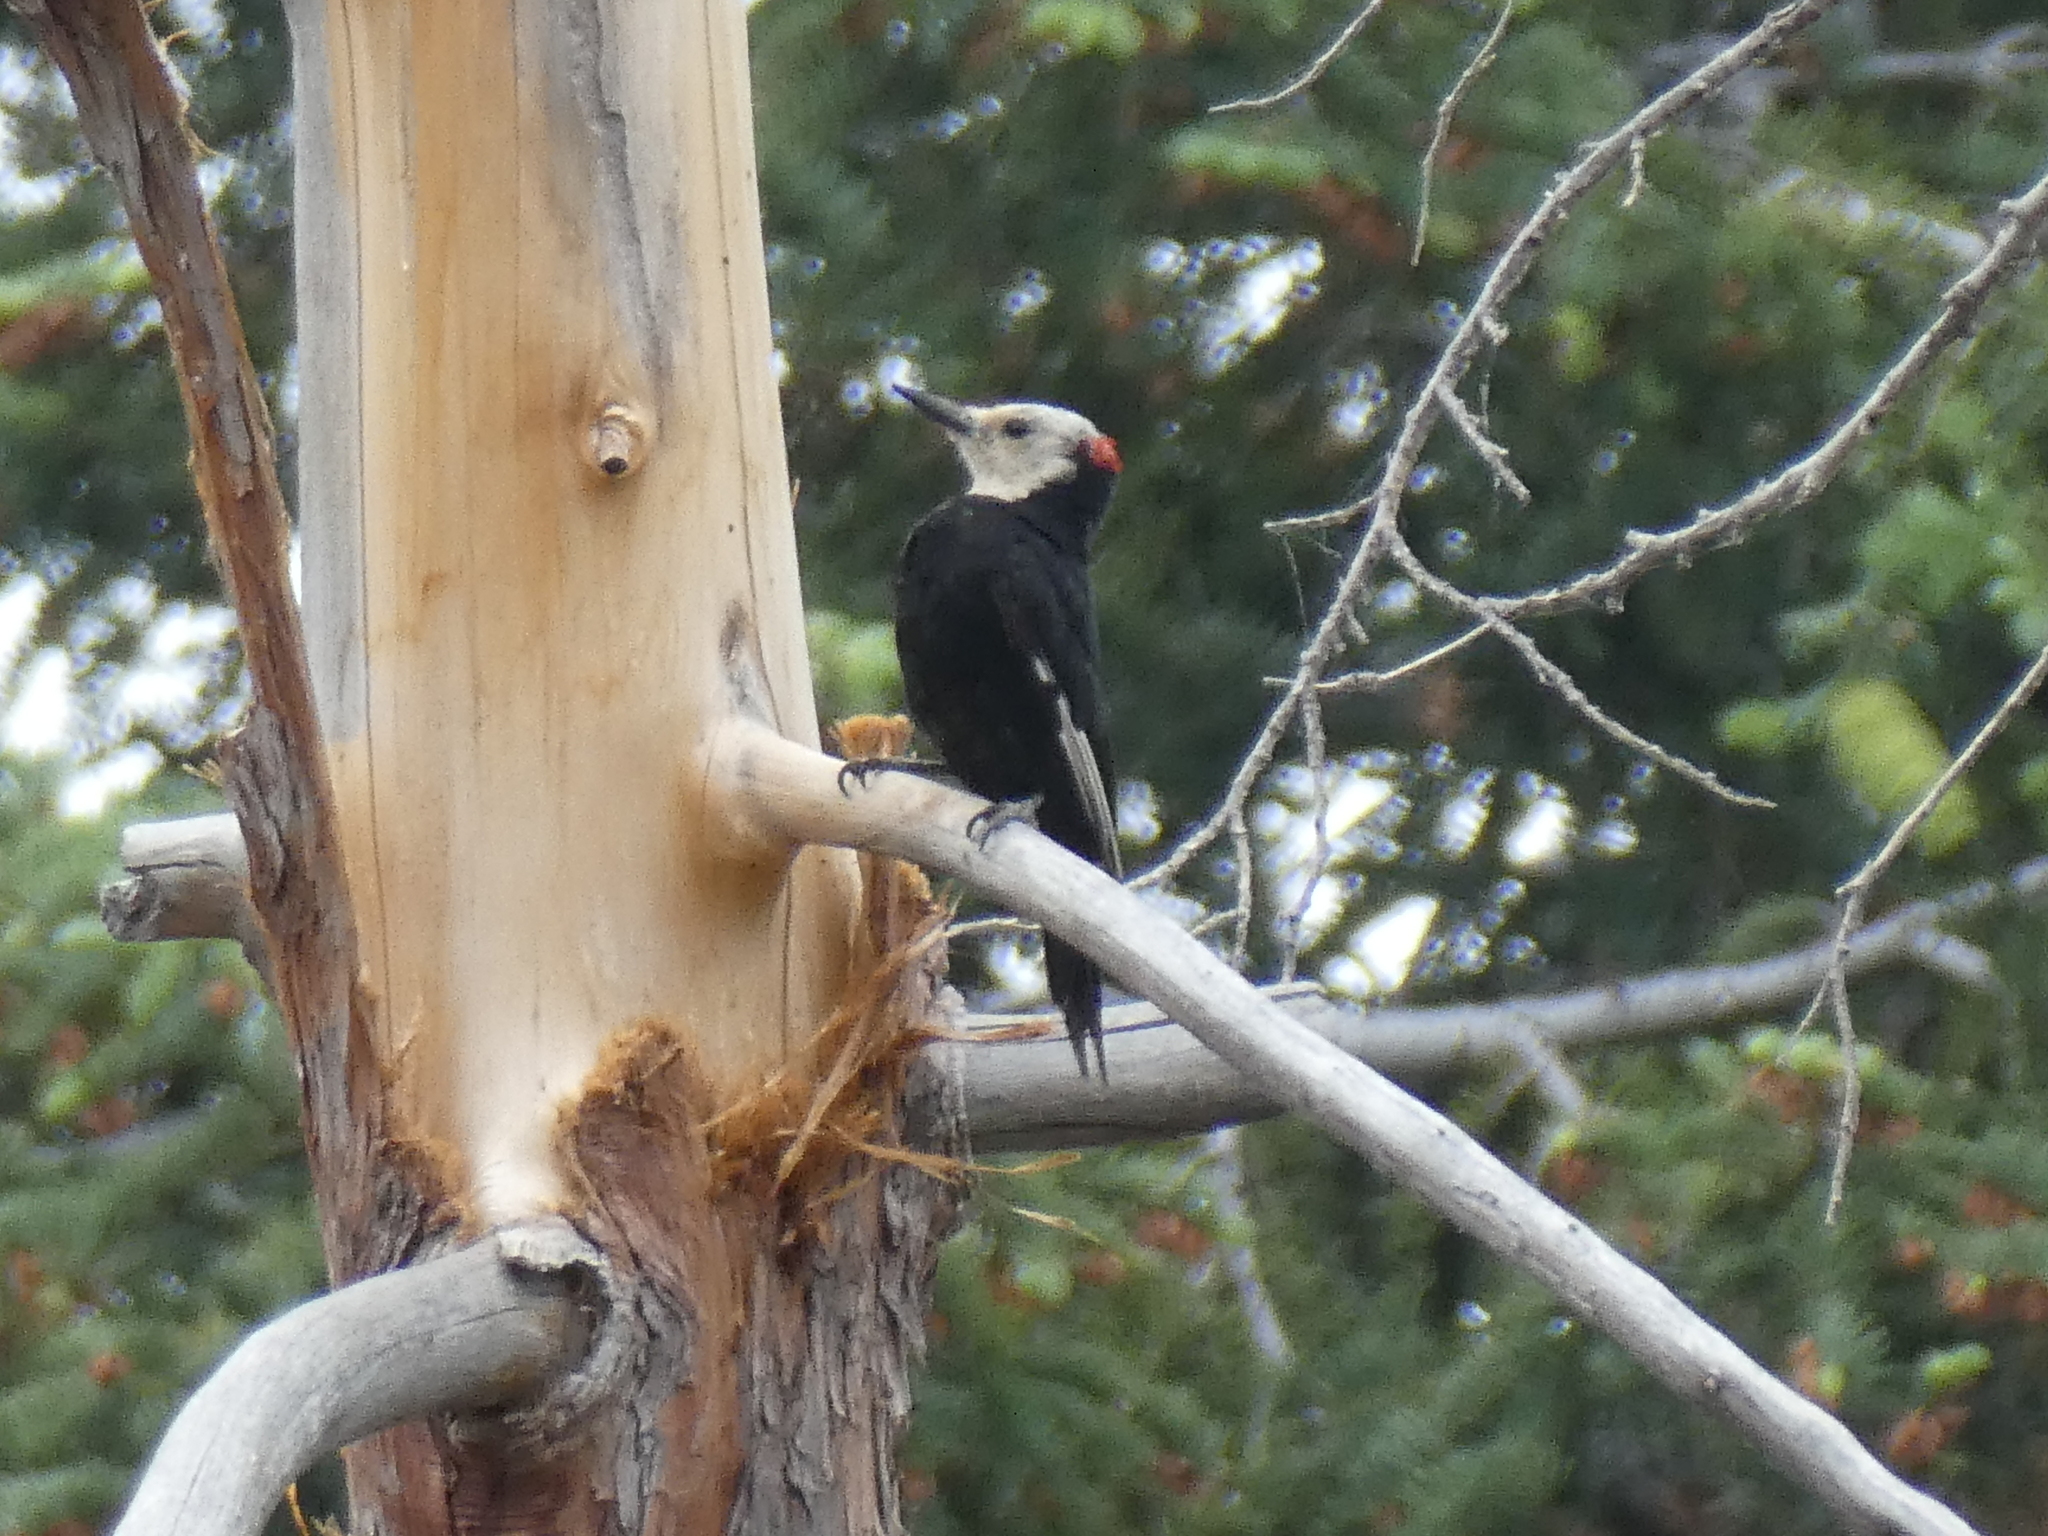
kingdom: Animalia
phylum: Chordata
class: Aves
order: Piciformes
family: Picidae
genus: Leuconotopicus
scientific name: Leuconotopicus albolarvatus
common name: White-headed woodpecker
